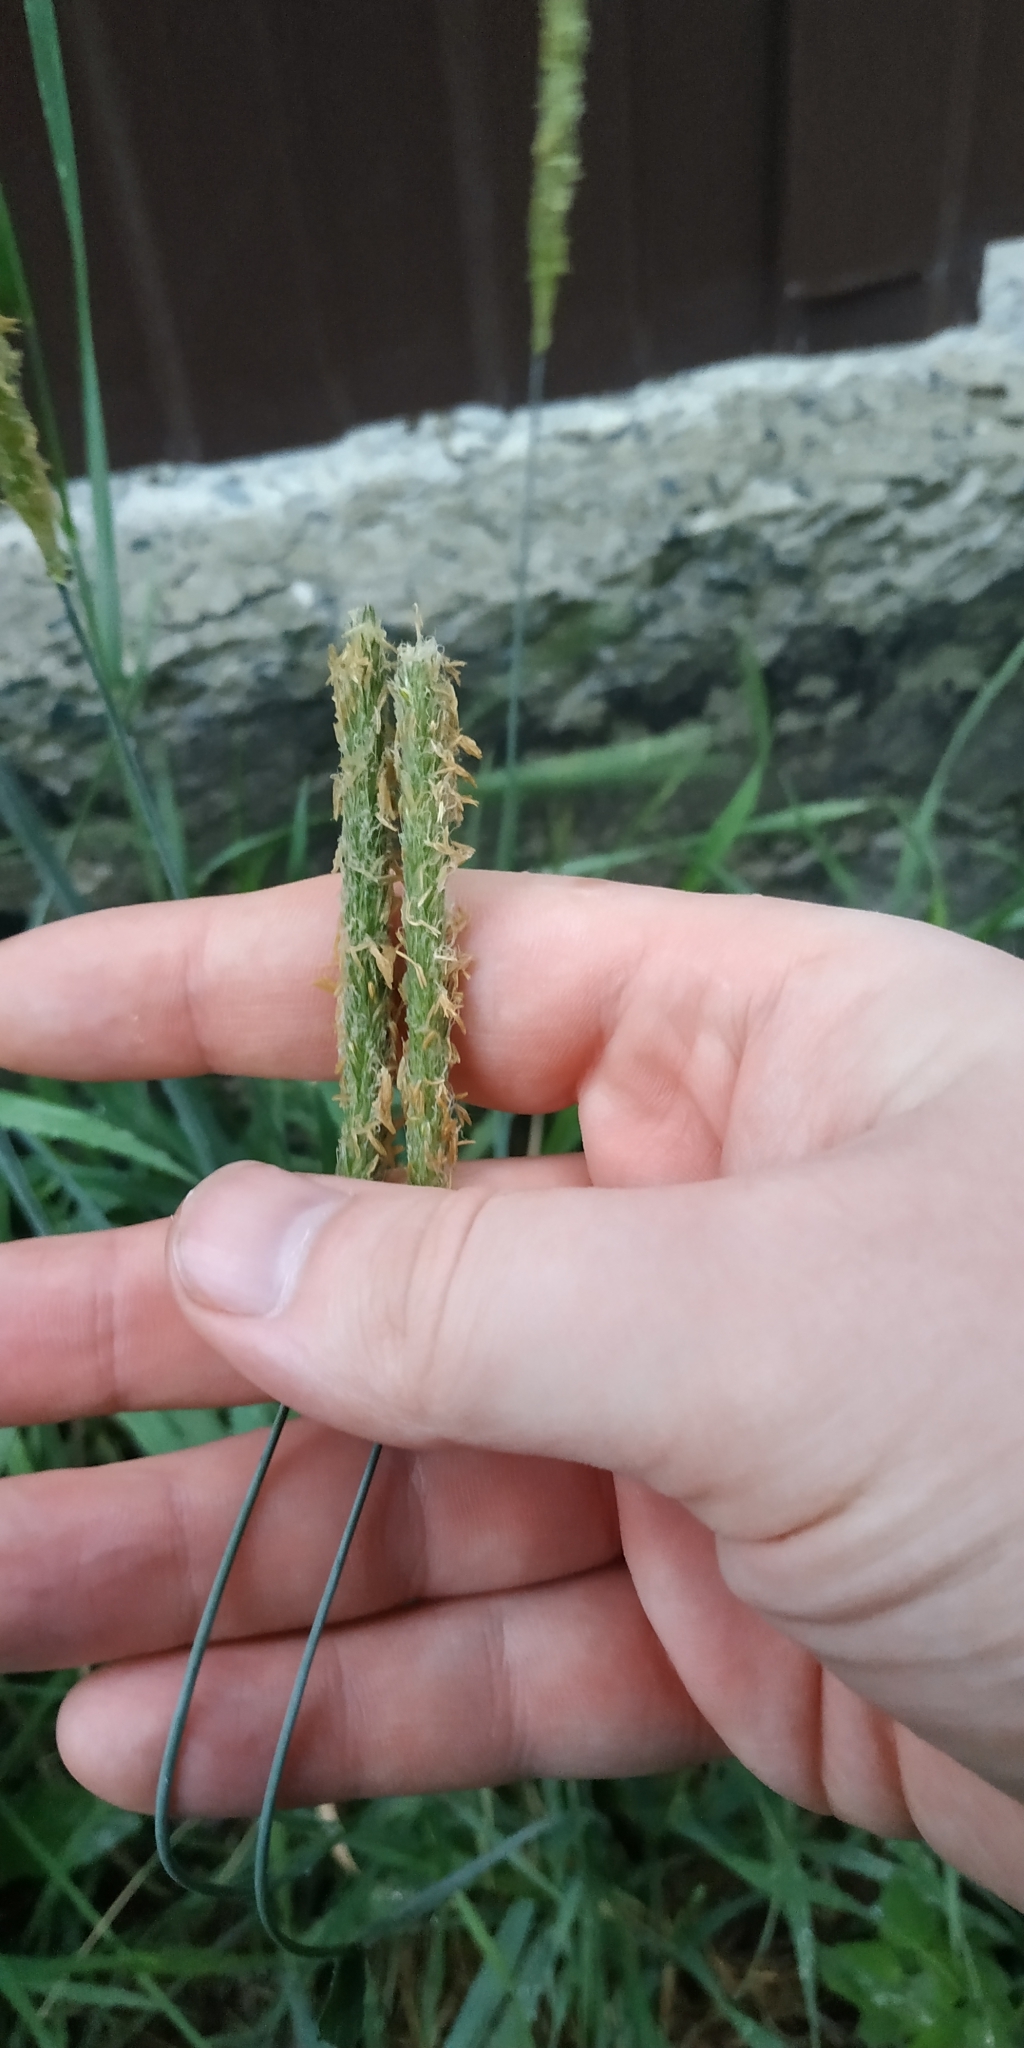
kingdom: Plantae
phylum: Tracheophyta
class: Liliopsida
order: Poales
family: Poaceae
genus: Alopecurus
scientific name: Alopecurus pratensis
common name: Meadow foxtail
